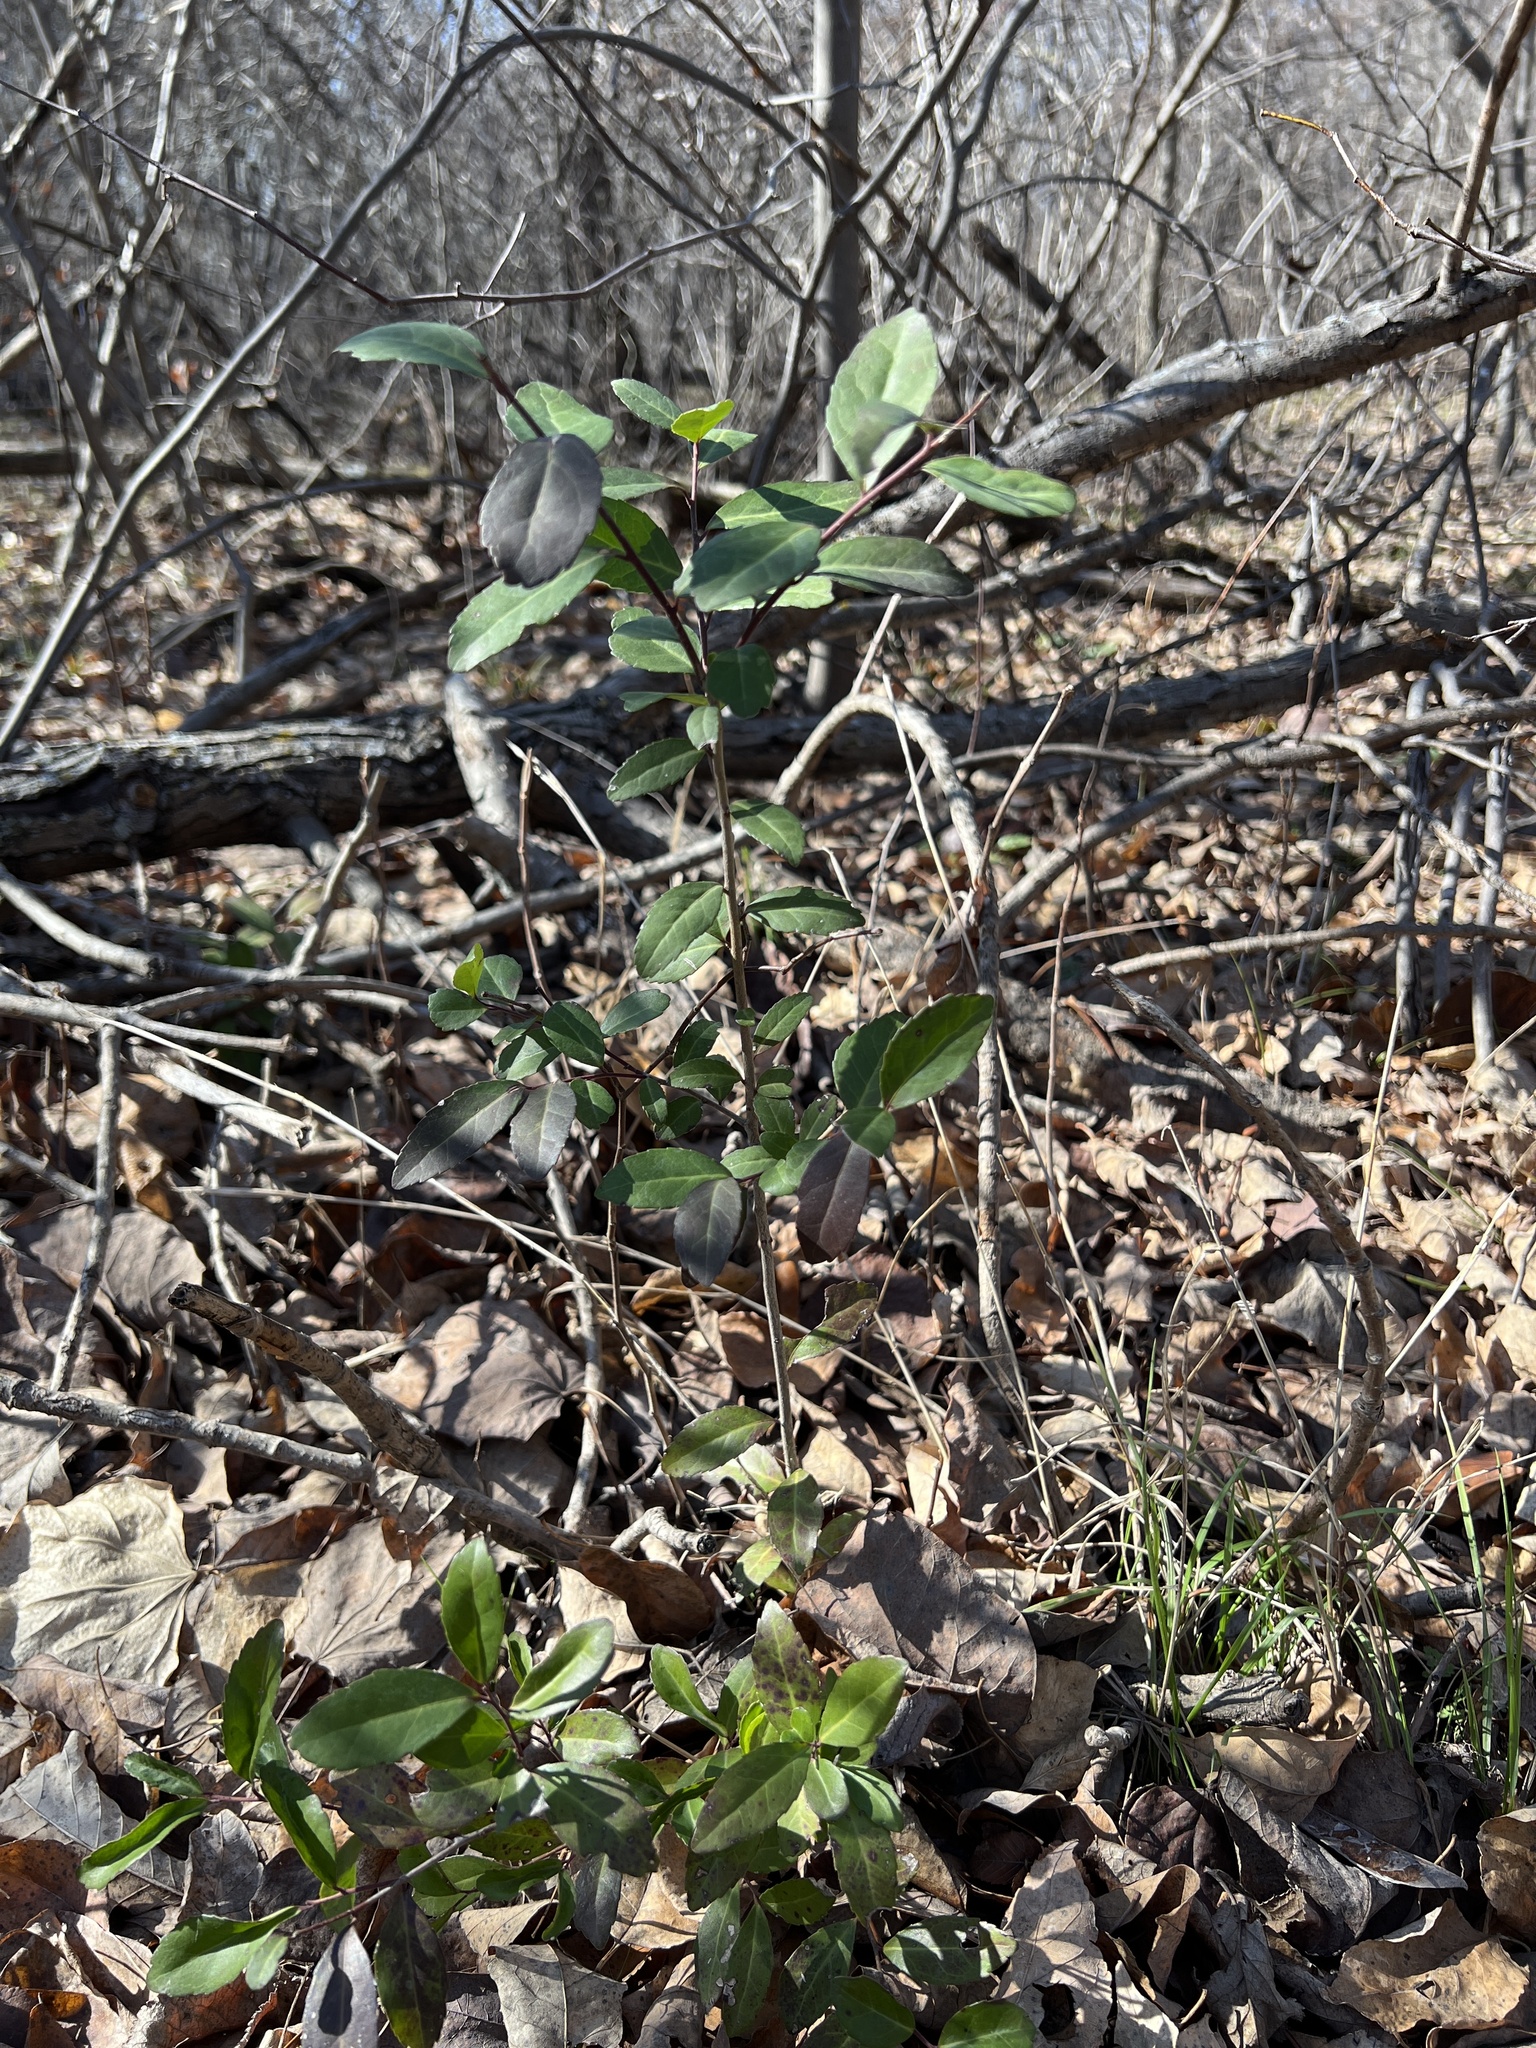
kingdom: Plantae
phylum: Tracheophyta
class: Magnoliopsida
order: Aquifoliales
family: Aquifoliaceae
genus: Ilex
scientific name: Ilex vomitoria
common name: Yaupon holly
